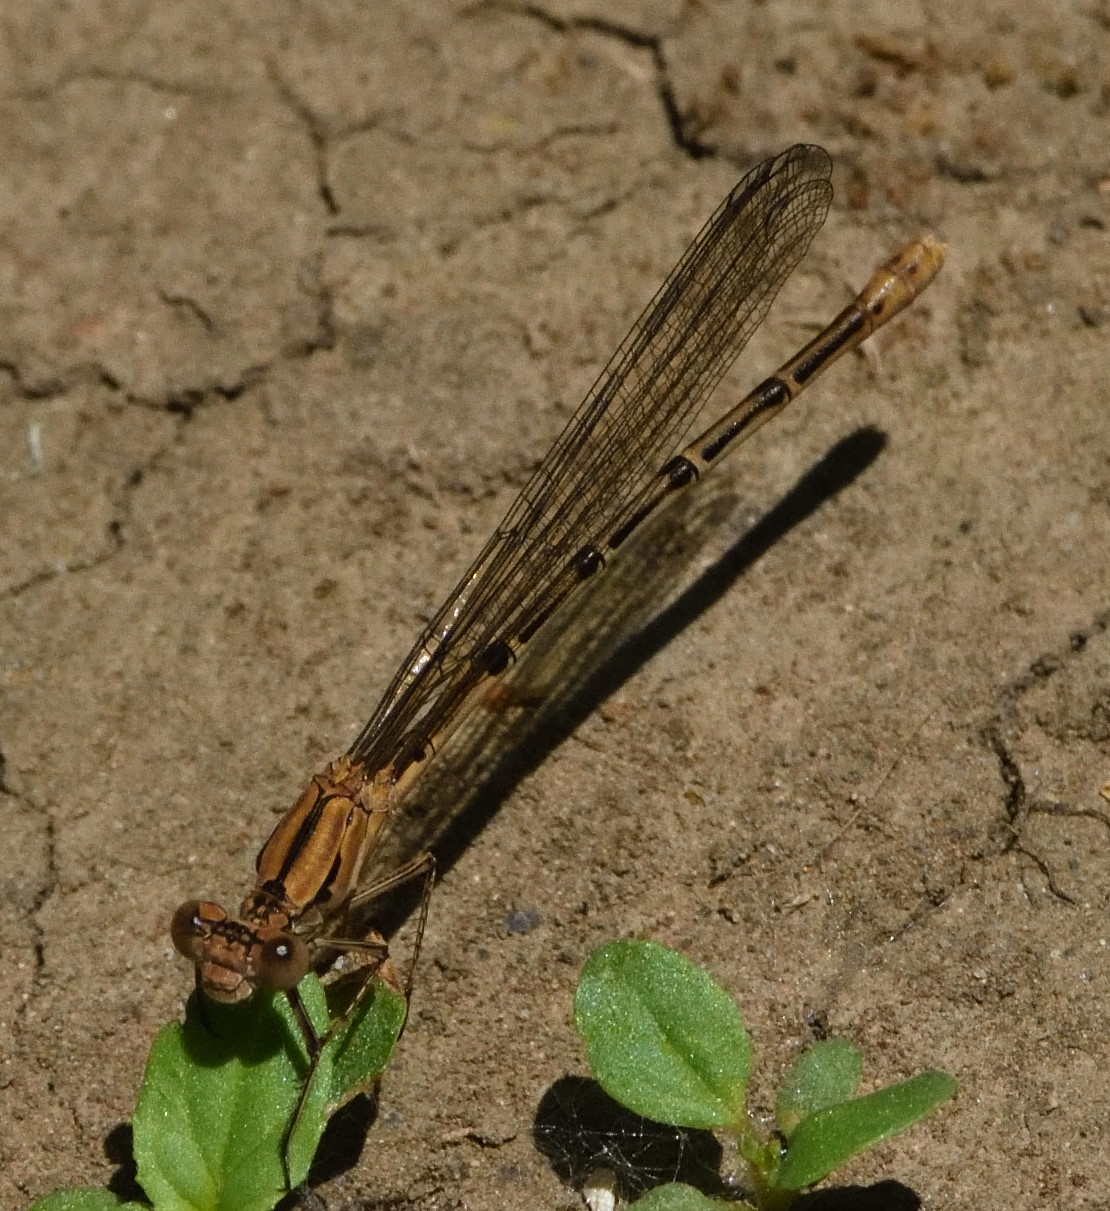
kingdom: Animalia
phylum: Arthropoda
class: Insecta
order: Odonata
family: Coenagrionidae
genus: Argia
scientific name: Argia emma
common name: Emma's dancer
